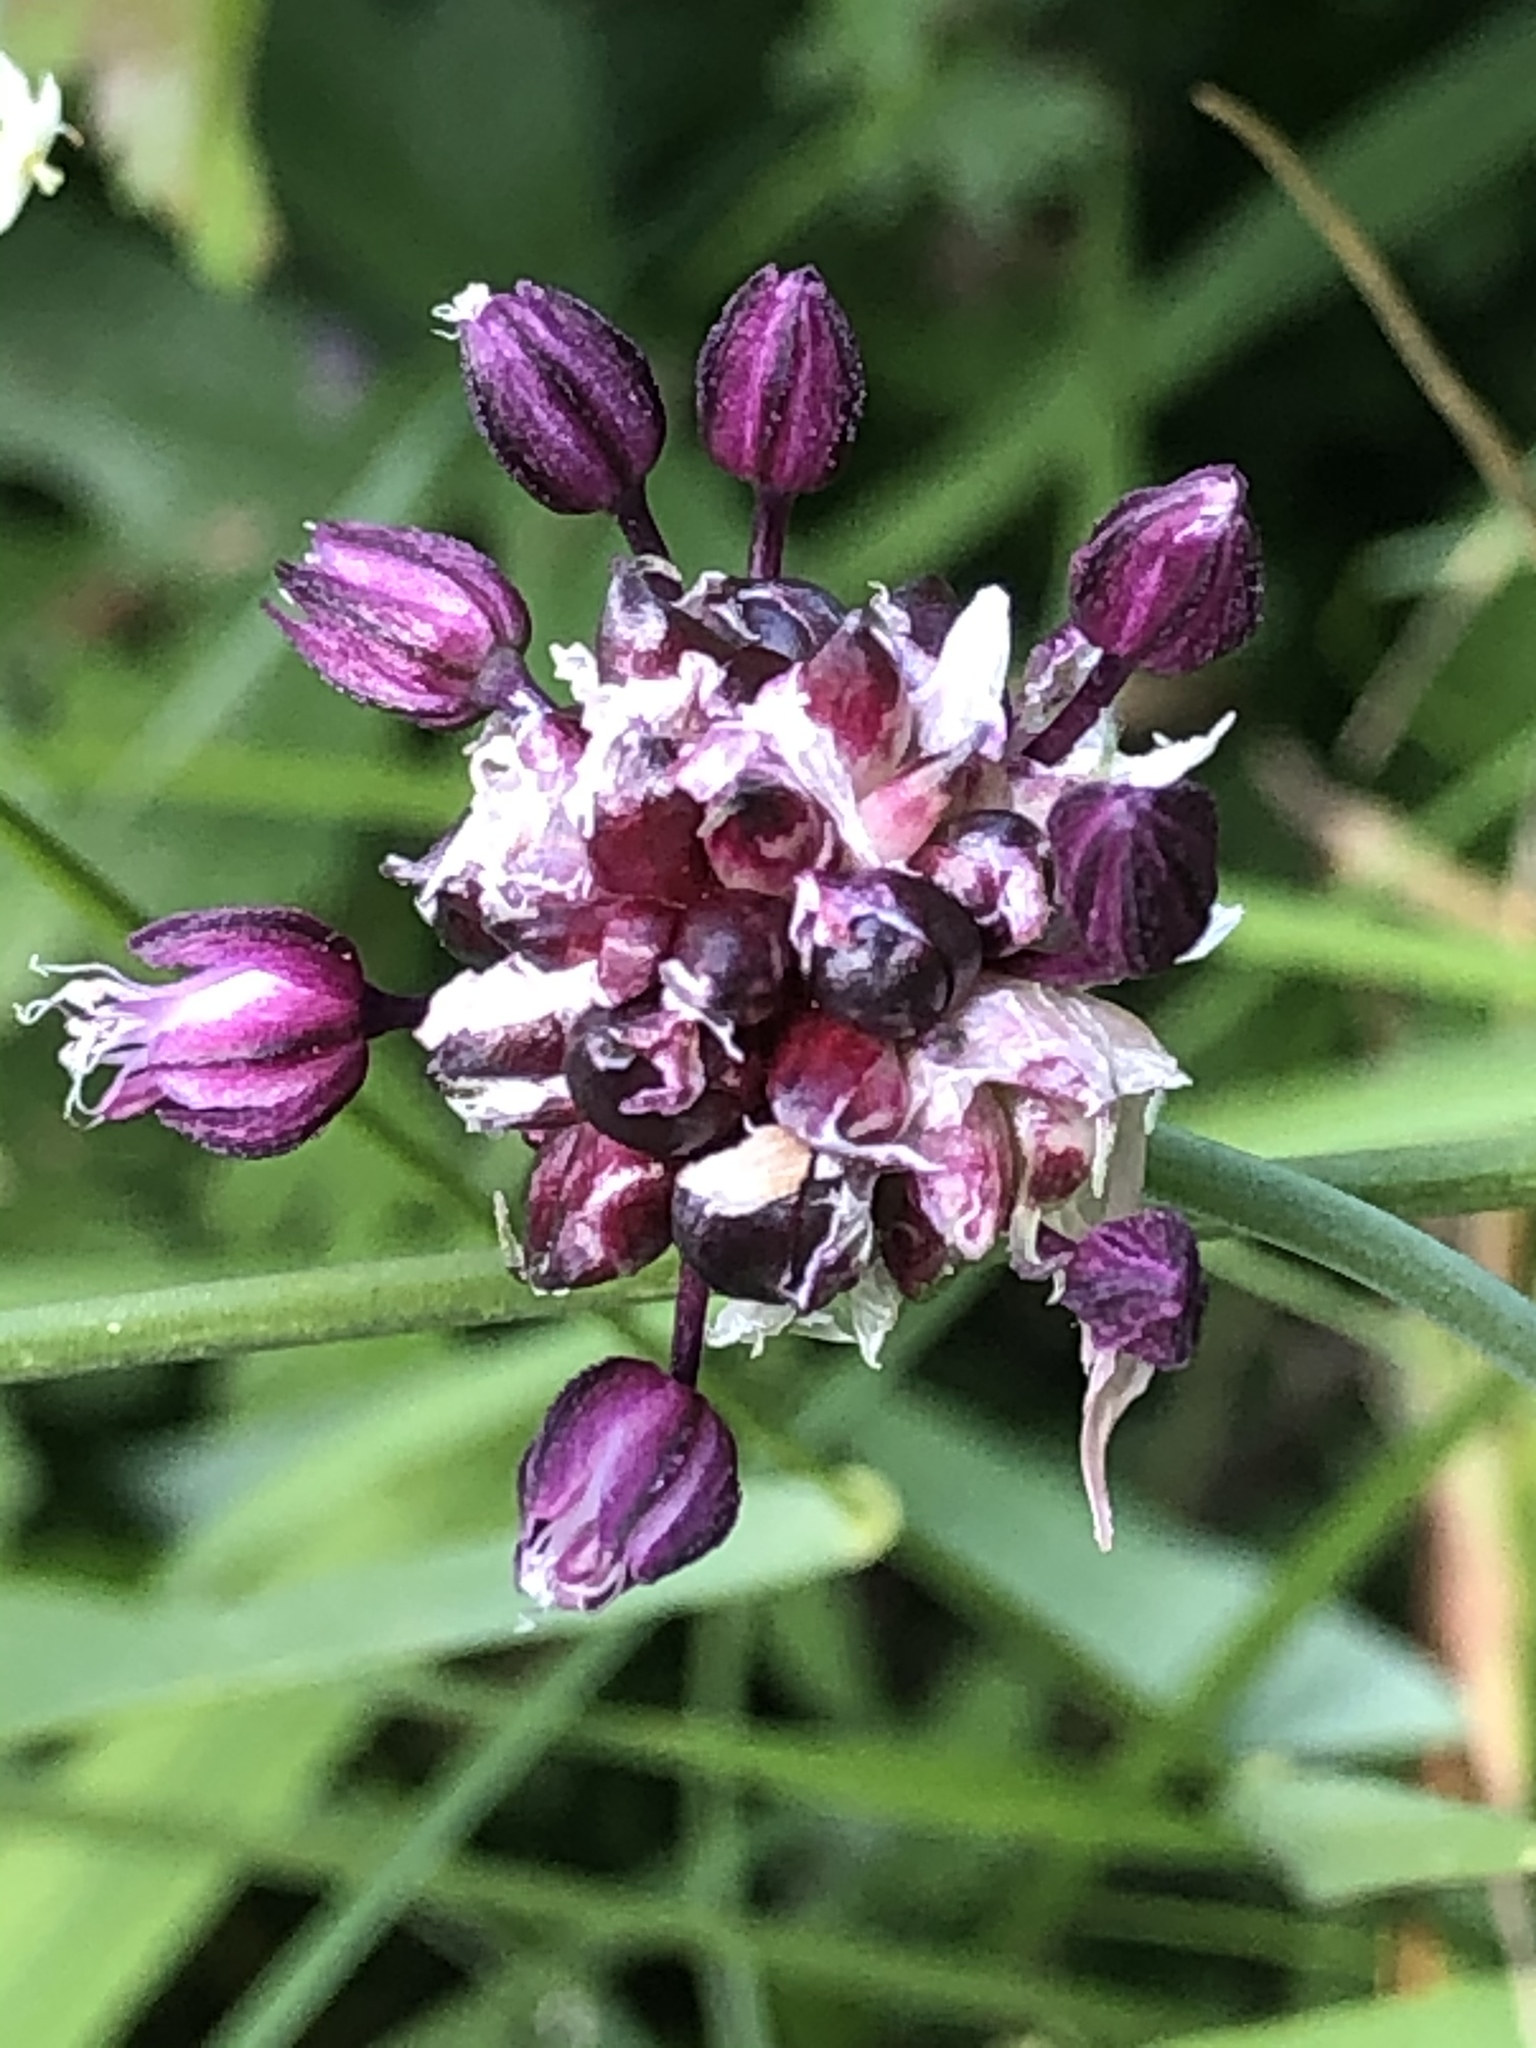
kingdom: Plantae
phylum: Tracheophyta
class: Liliopsida
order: Asparagales
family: Amaryllidaceae
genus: Allium
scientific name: Allium scorodoprasum
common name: Sand leek
